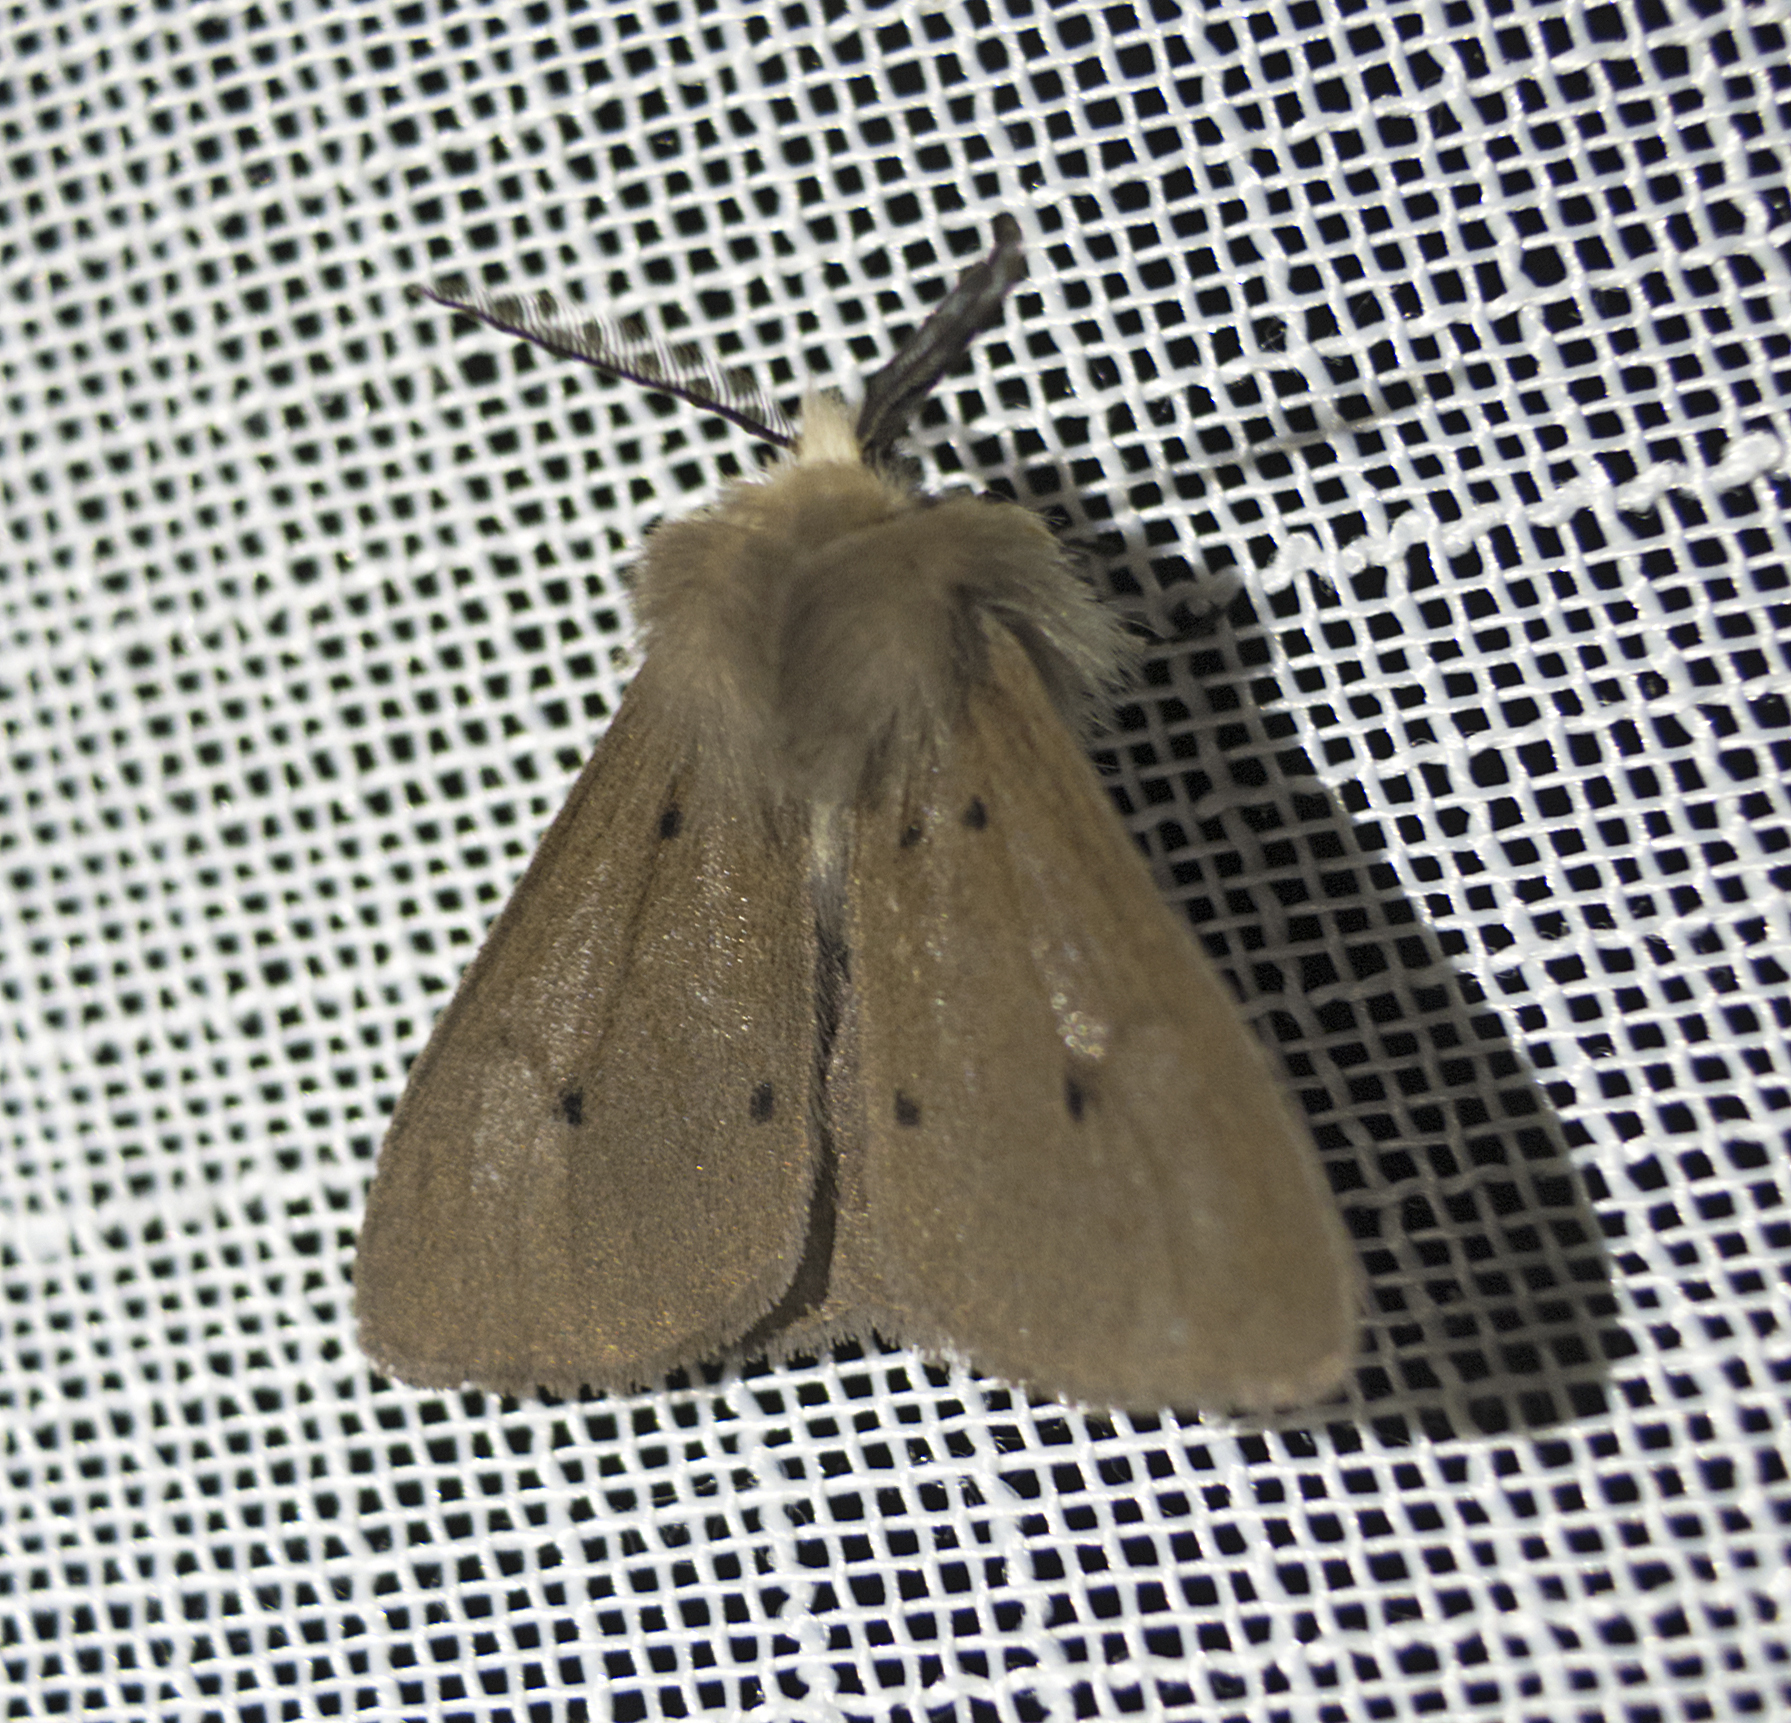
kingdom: Animalia
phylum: Arthropoda
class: Insecta
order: Lepidoptera
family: Erebidae
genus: Diaphora
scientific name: Diaphora mendica
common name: Muslin moth
